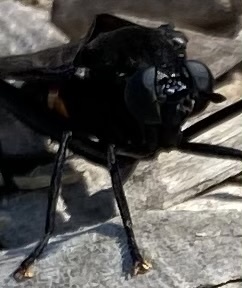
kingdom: Animalia
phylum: Arthropoda
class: Insecta
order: Diptera
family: Mydidae
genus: Mydas
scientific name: Mydas clavatus
